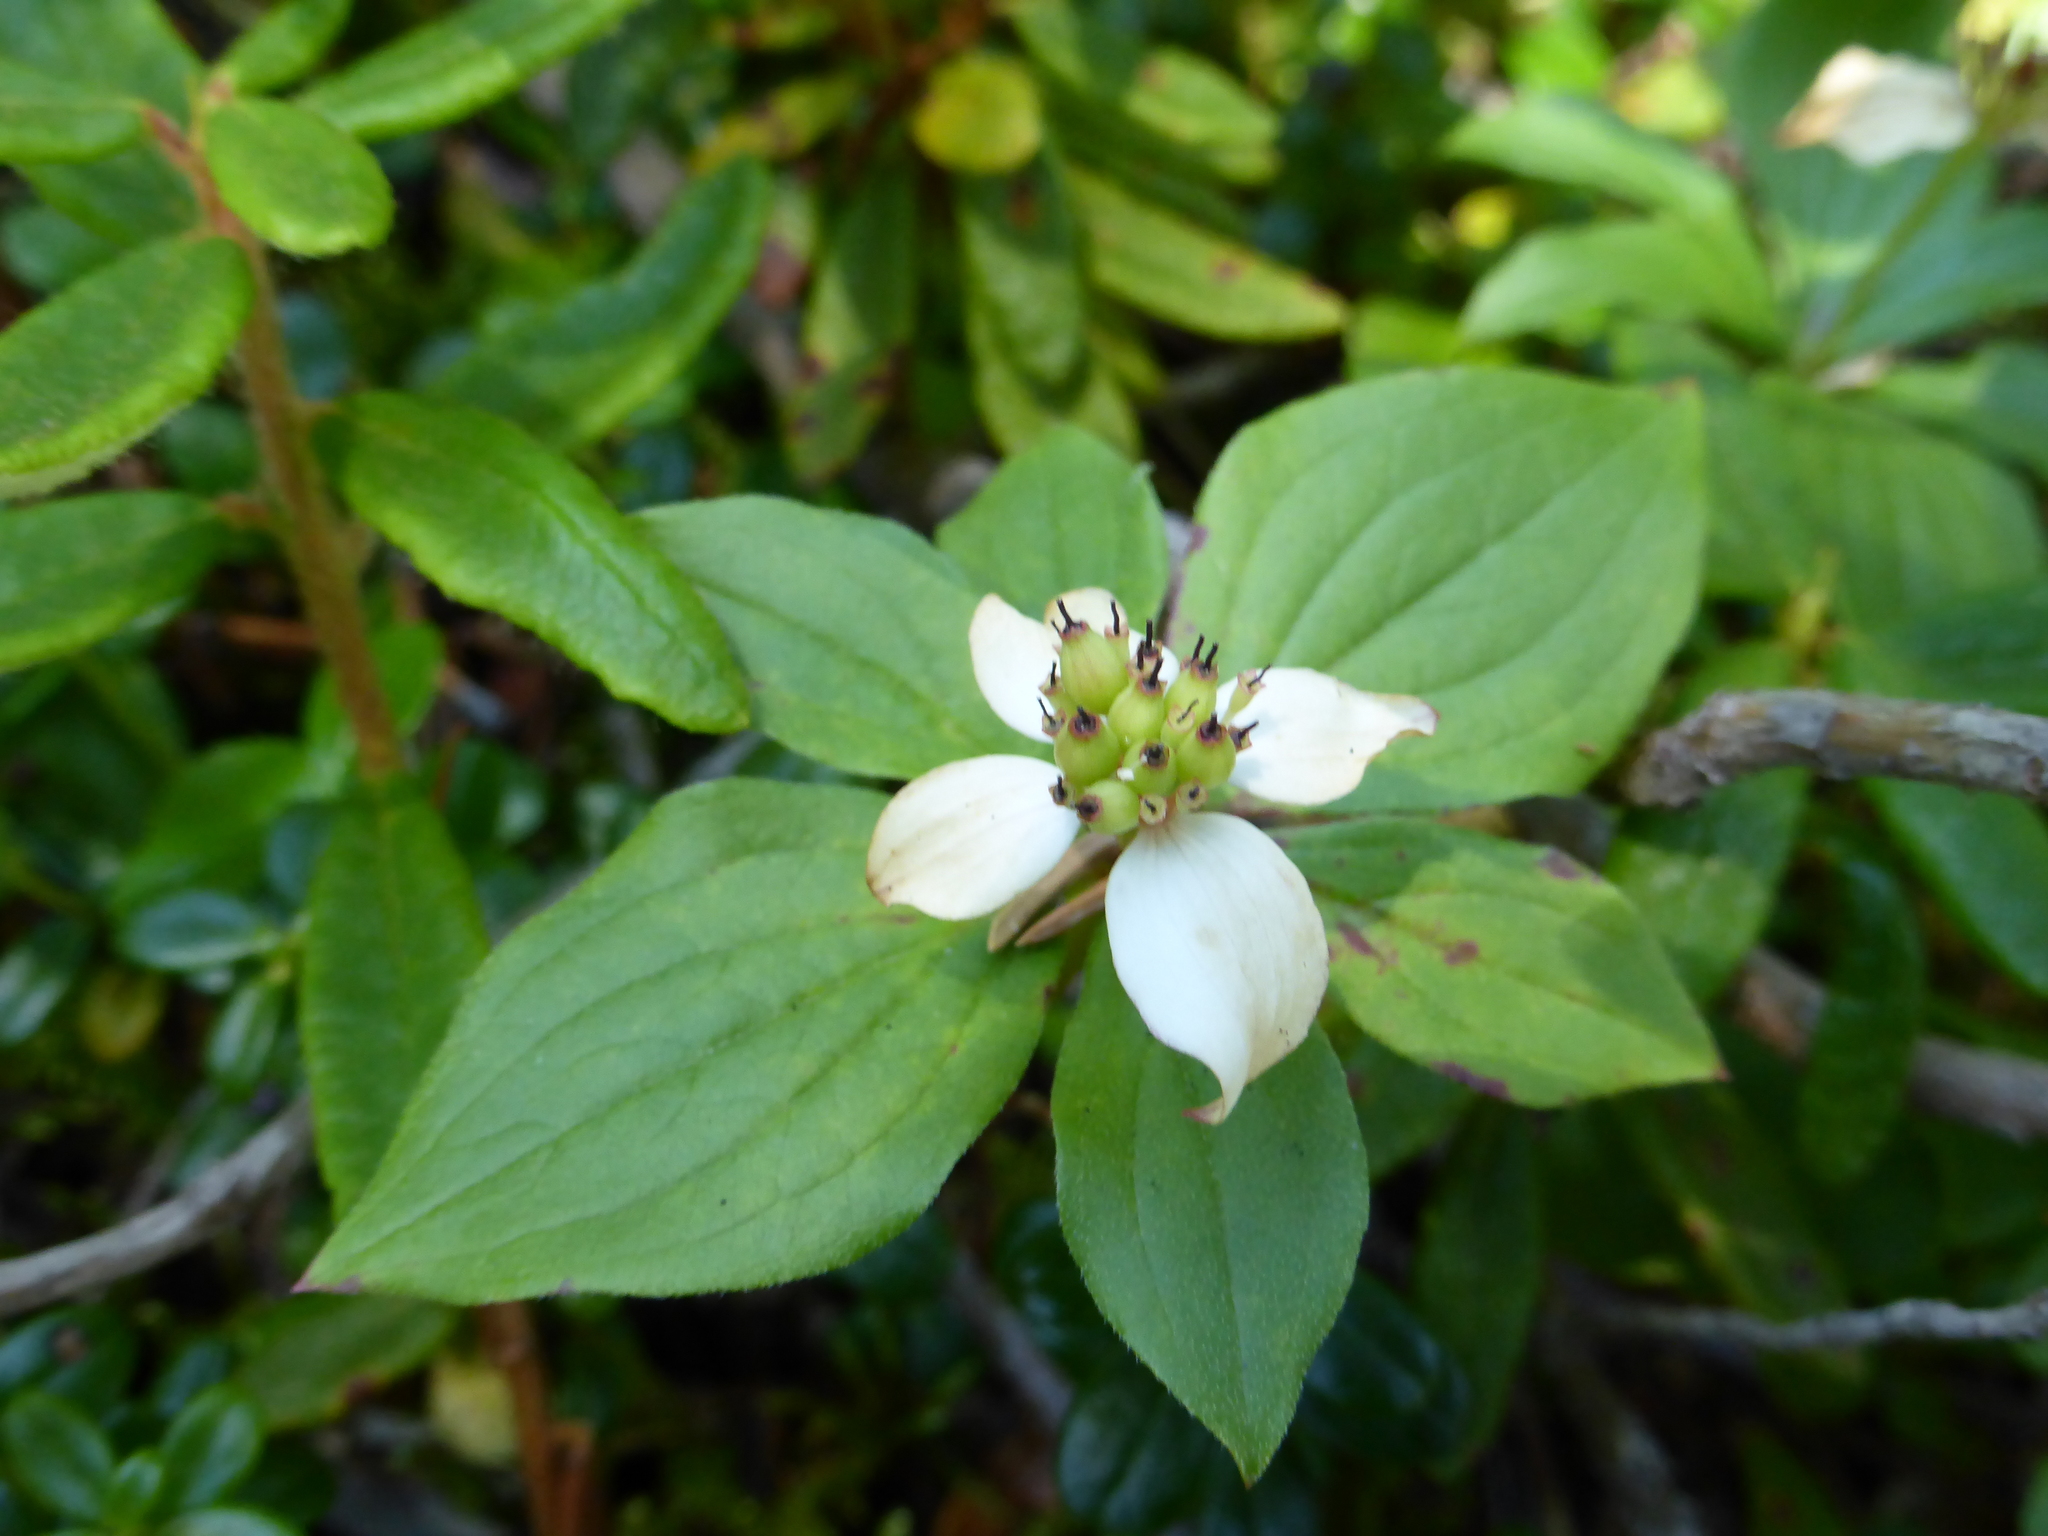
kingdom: Plantae
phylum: Tracheophyta
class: Magnoliopsida
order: Cornales
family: Cornaceae
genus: Cornus
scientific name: Cornus canadensis
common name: Creeping dogwood
